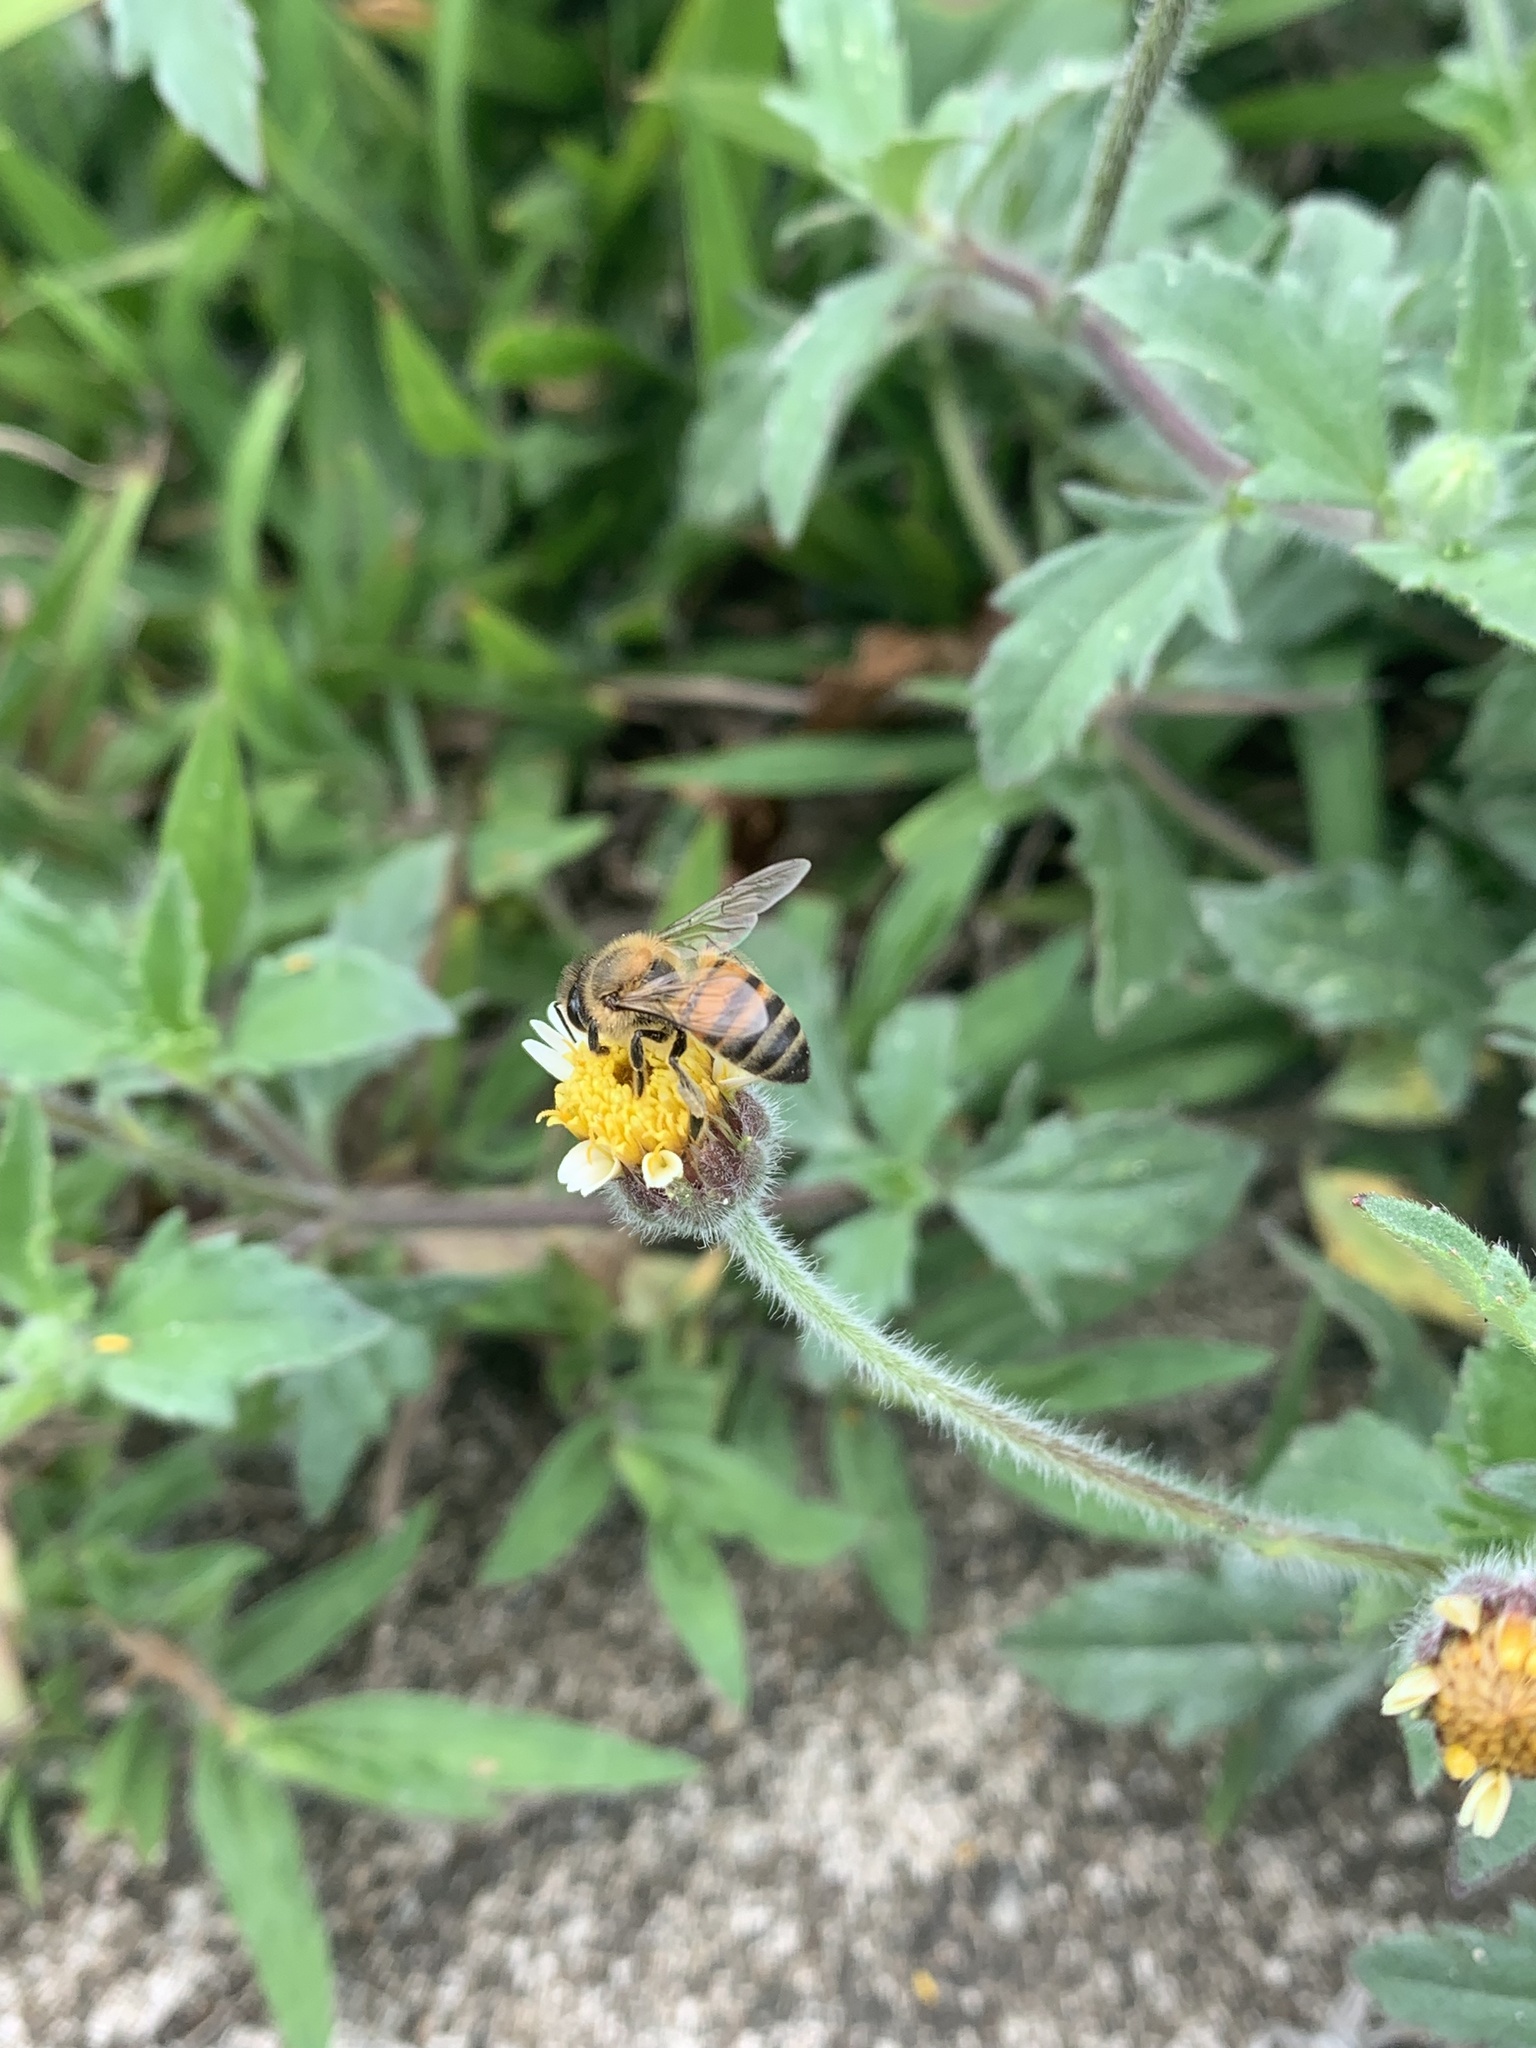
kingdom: Animalia
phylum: Arthropoda
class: Insecta
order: Hymenoptera
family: Apidae
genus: Apis
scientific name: Apis mellifera
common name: Honey bee
